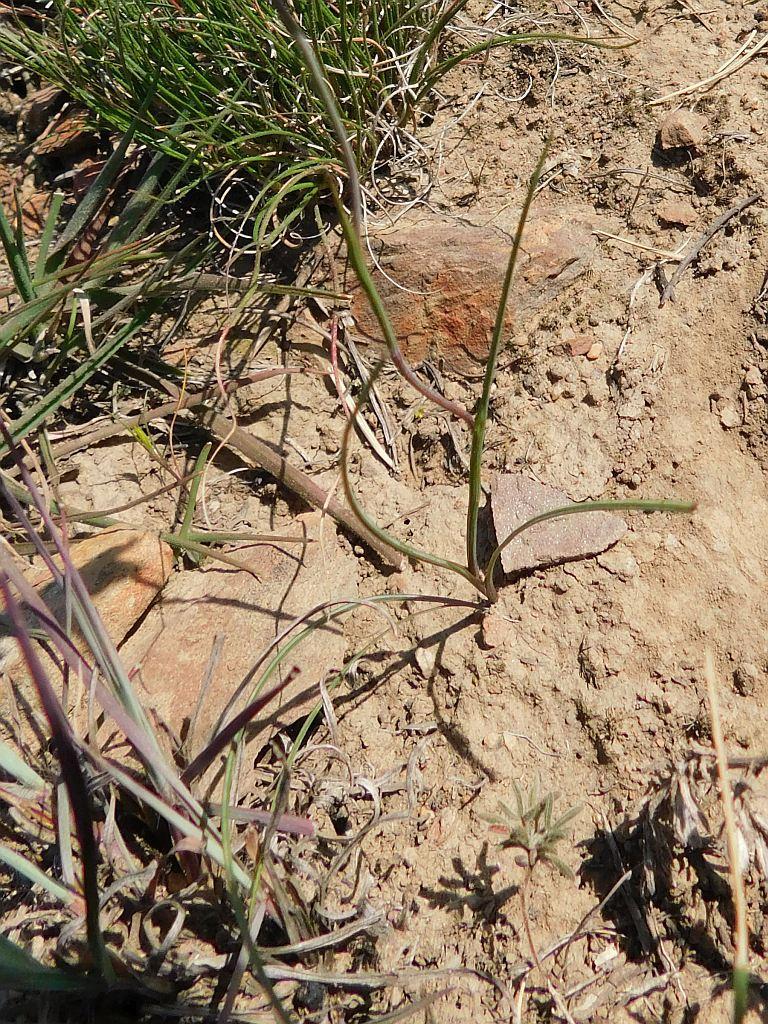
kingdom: Plantae
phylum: Tracheophyta
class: Liliopsida
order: Asparagales
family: Iridaceae
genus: Gladiolus
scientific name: Gladiolus permeabilis
